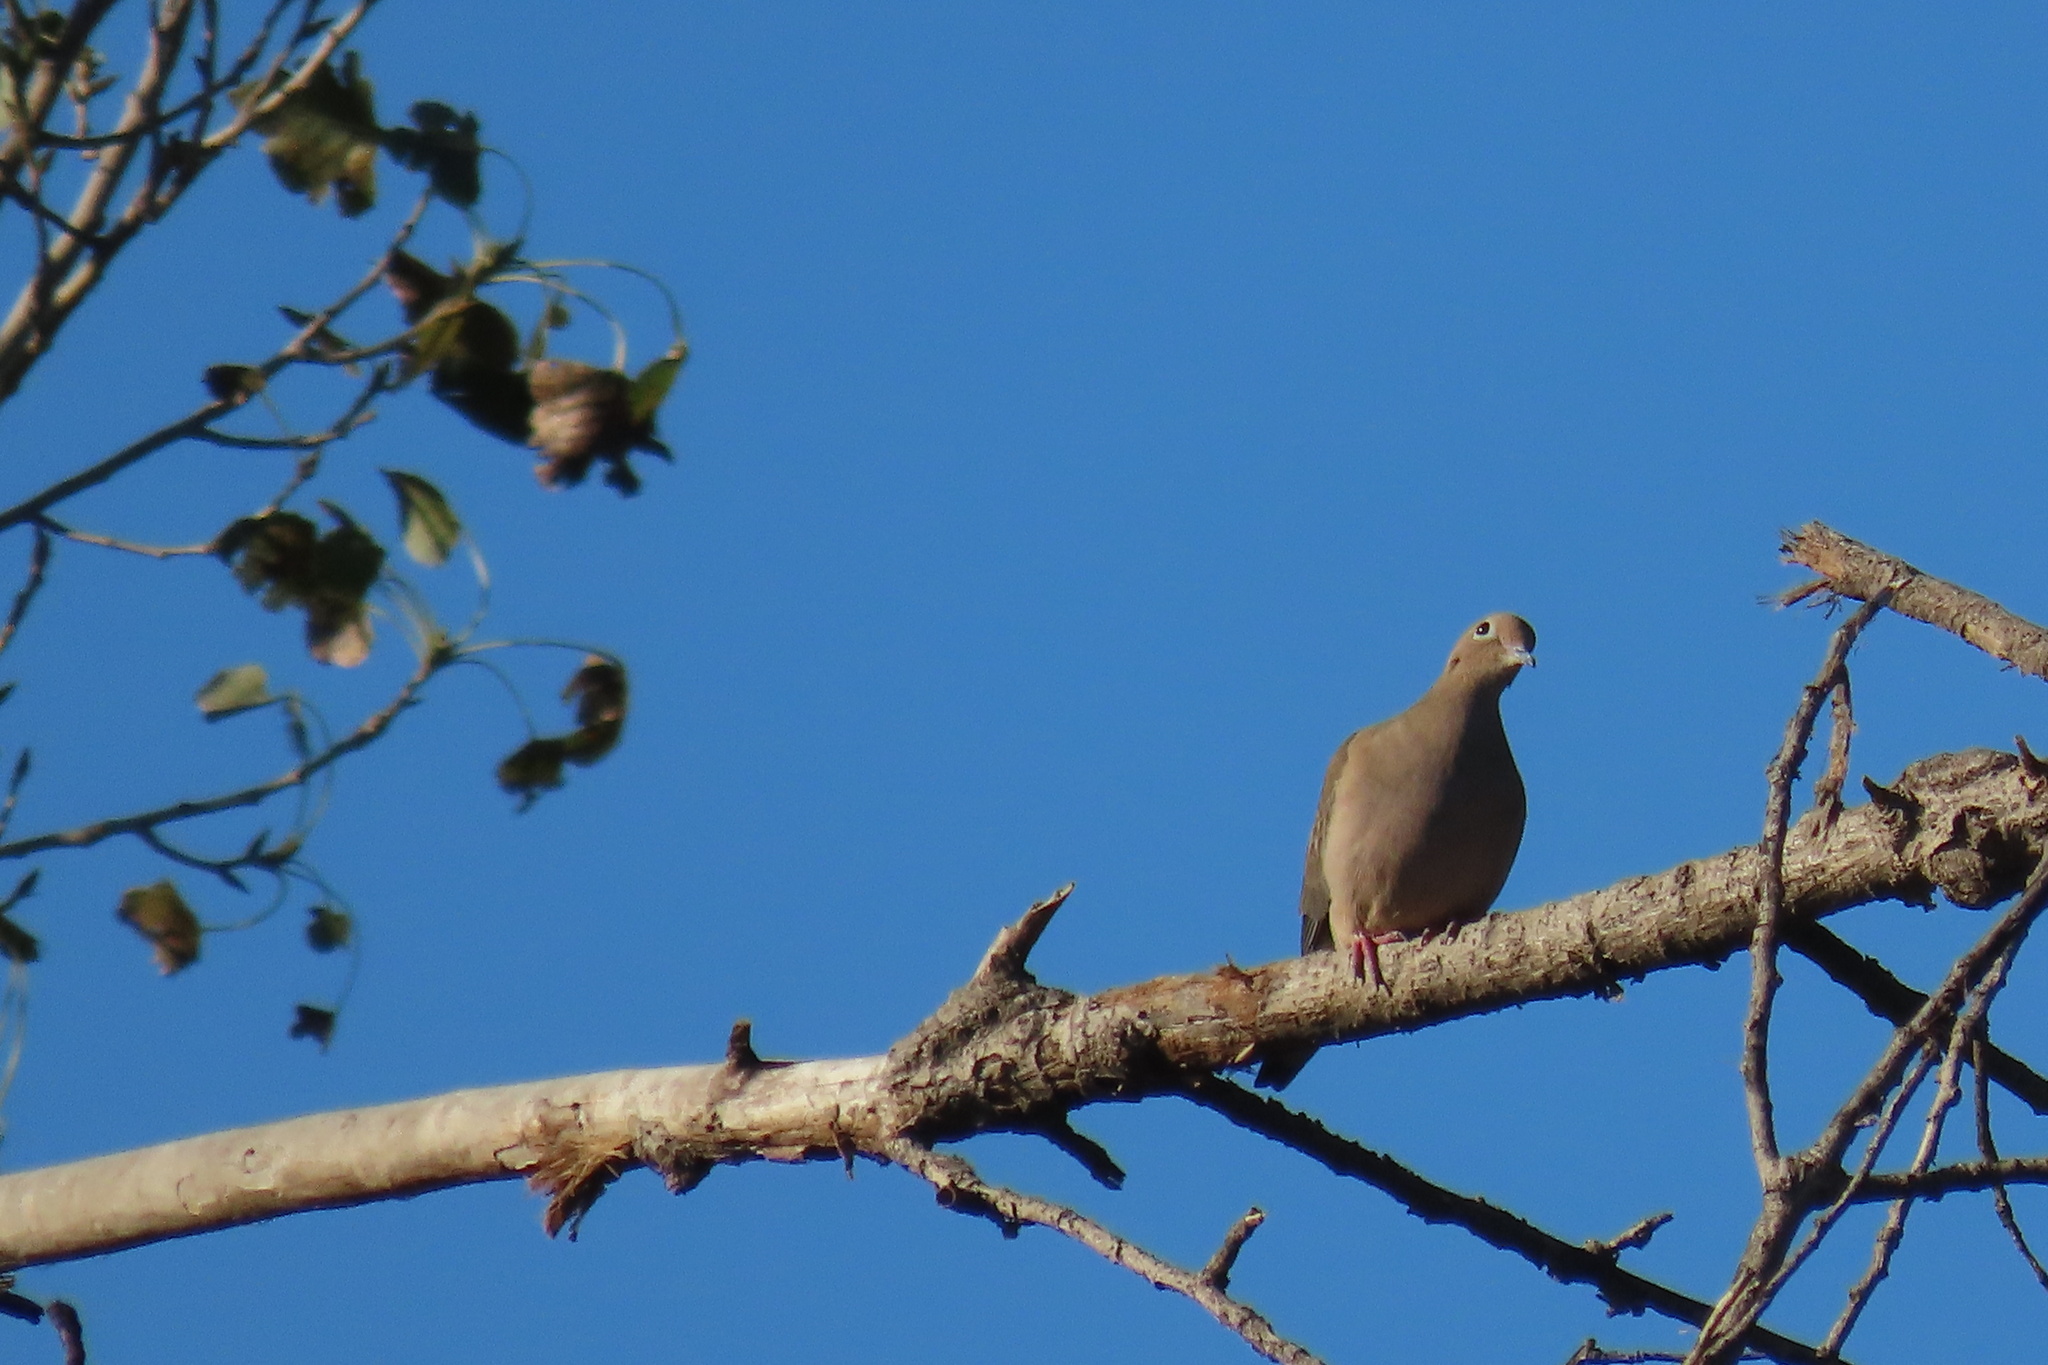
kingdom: Animalia
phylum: Chordata
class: Aves
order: Columbiformes
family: Columbidae
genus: Zenaida
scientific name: Zenaida macroura
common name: Mourning dove
